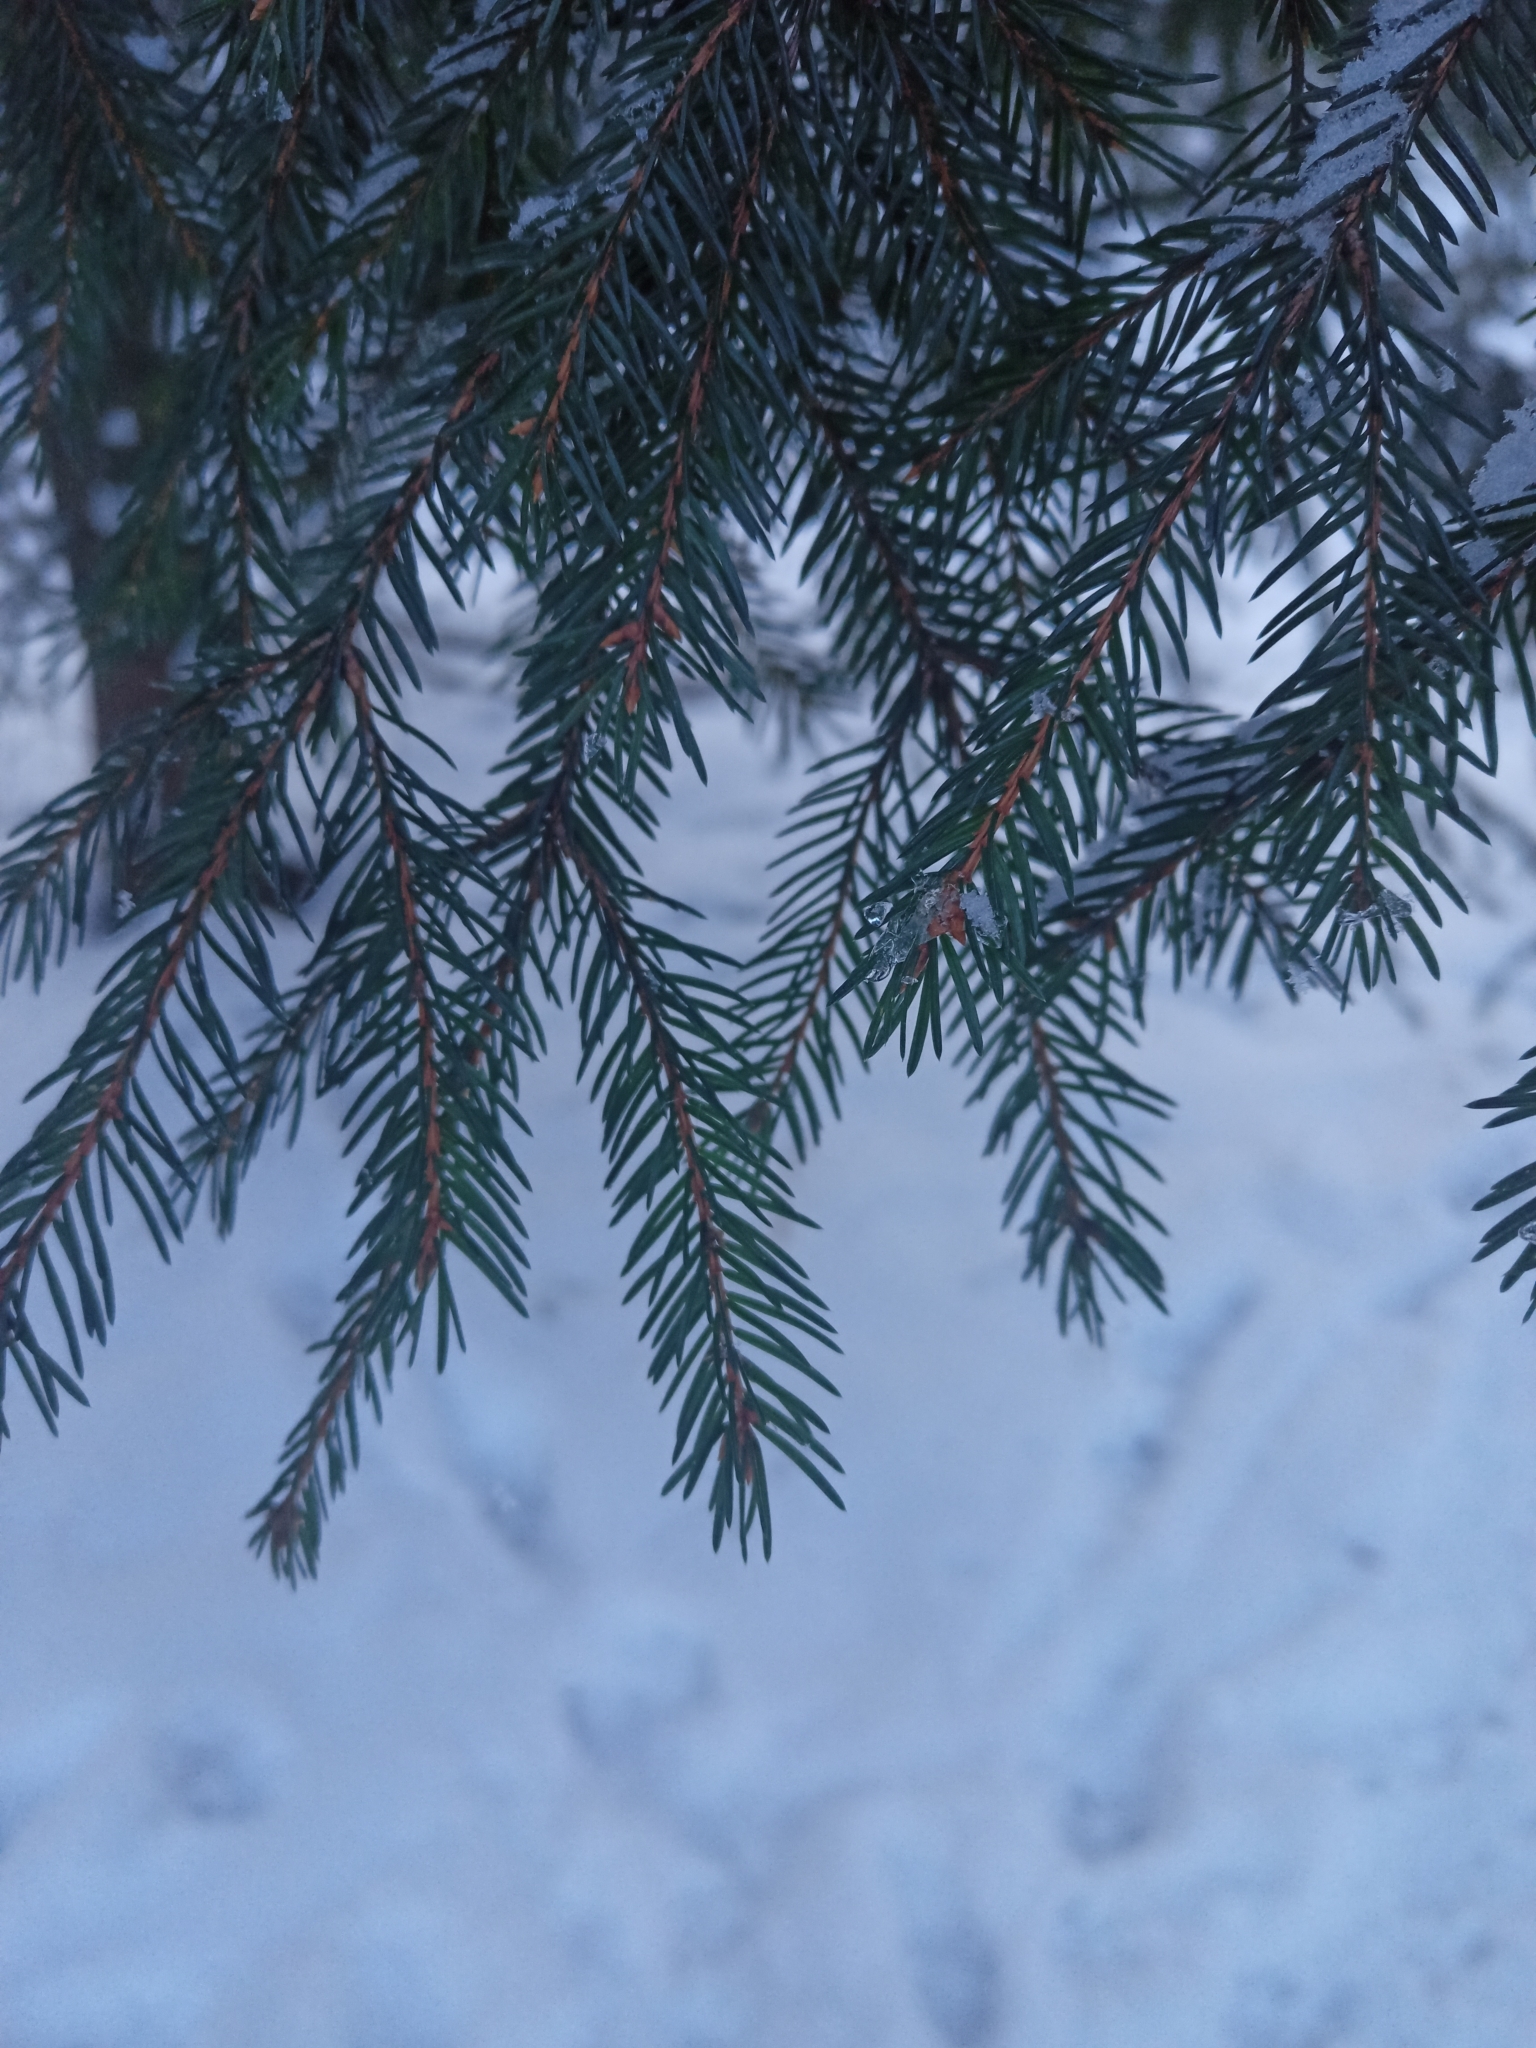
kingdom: Plantae
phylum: Tracheophyta
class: Pinopsida
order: Pinales
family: Pinaceae
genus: Picea
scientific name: Picea abies
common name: Norway spruce
